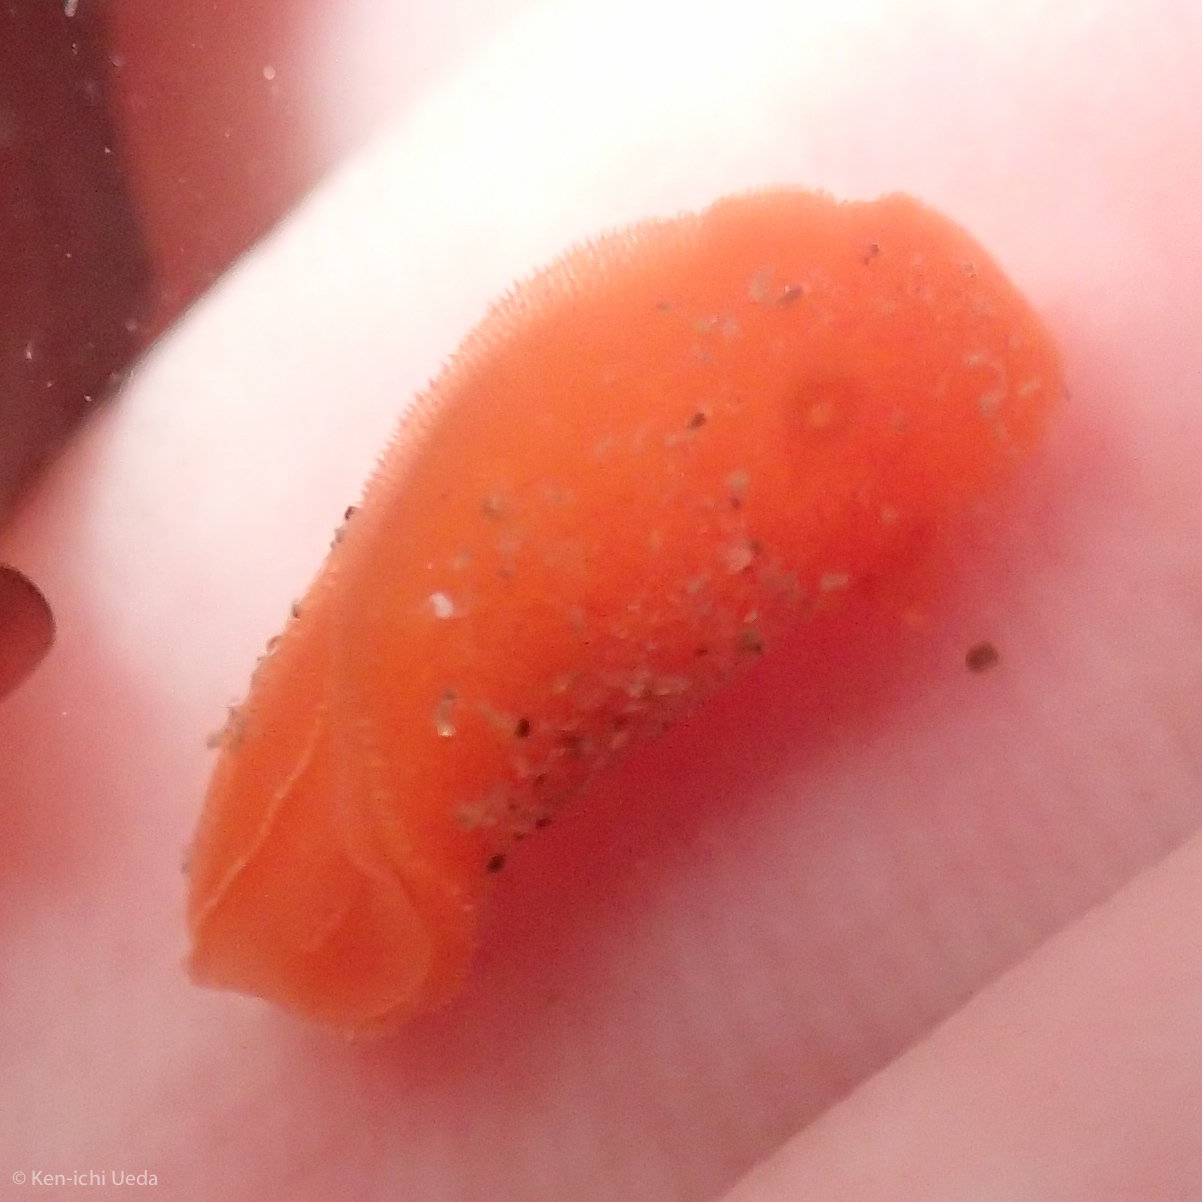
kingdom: Animalia
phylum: Mollusca
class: Gastropoda
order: Nudibranchia
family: Discodorididae
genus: Rostanga
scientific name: Rostanga pulchra
